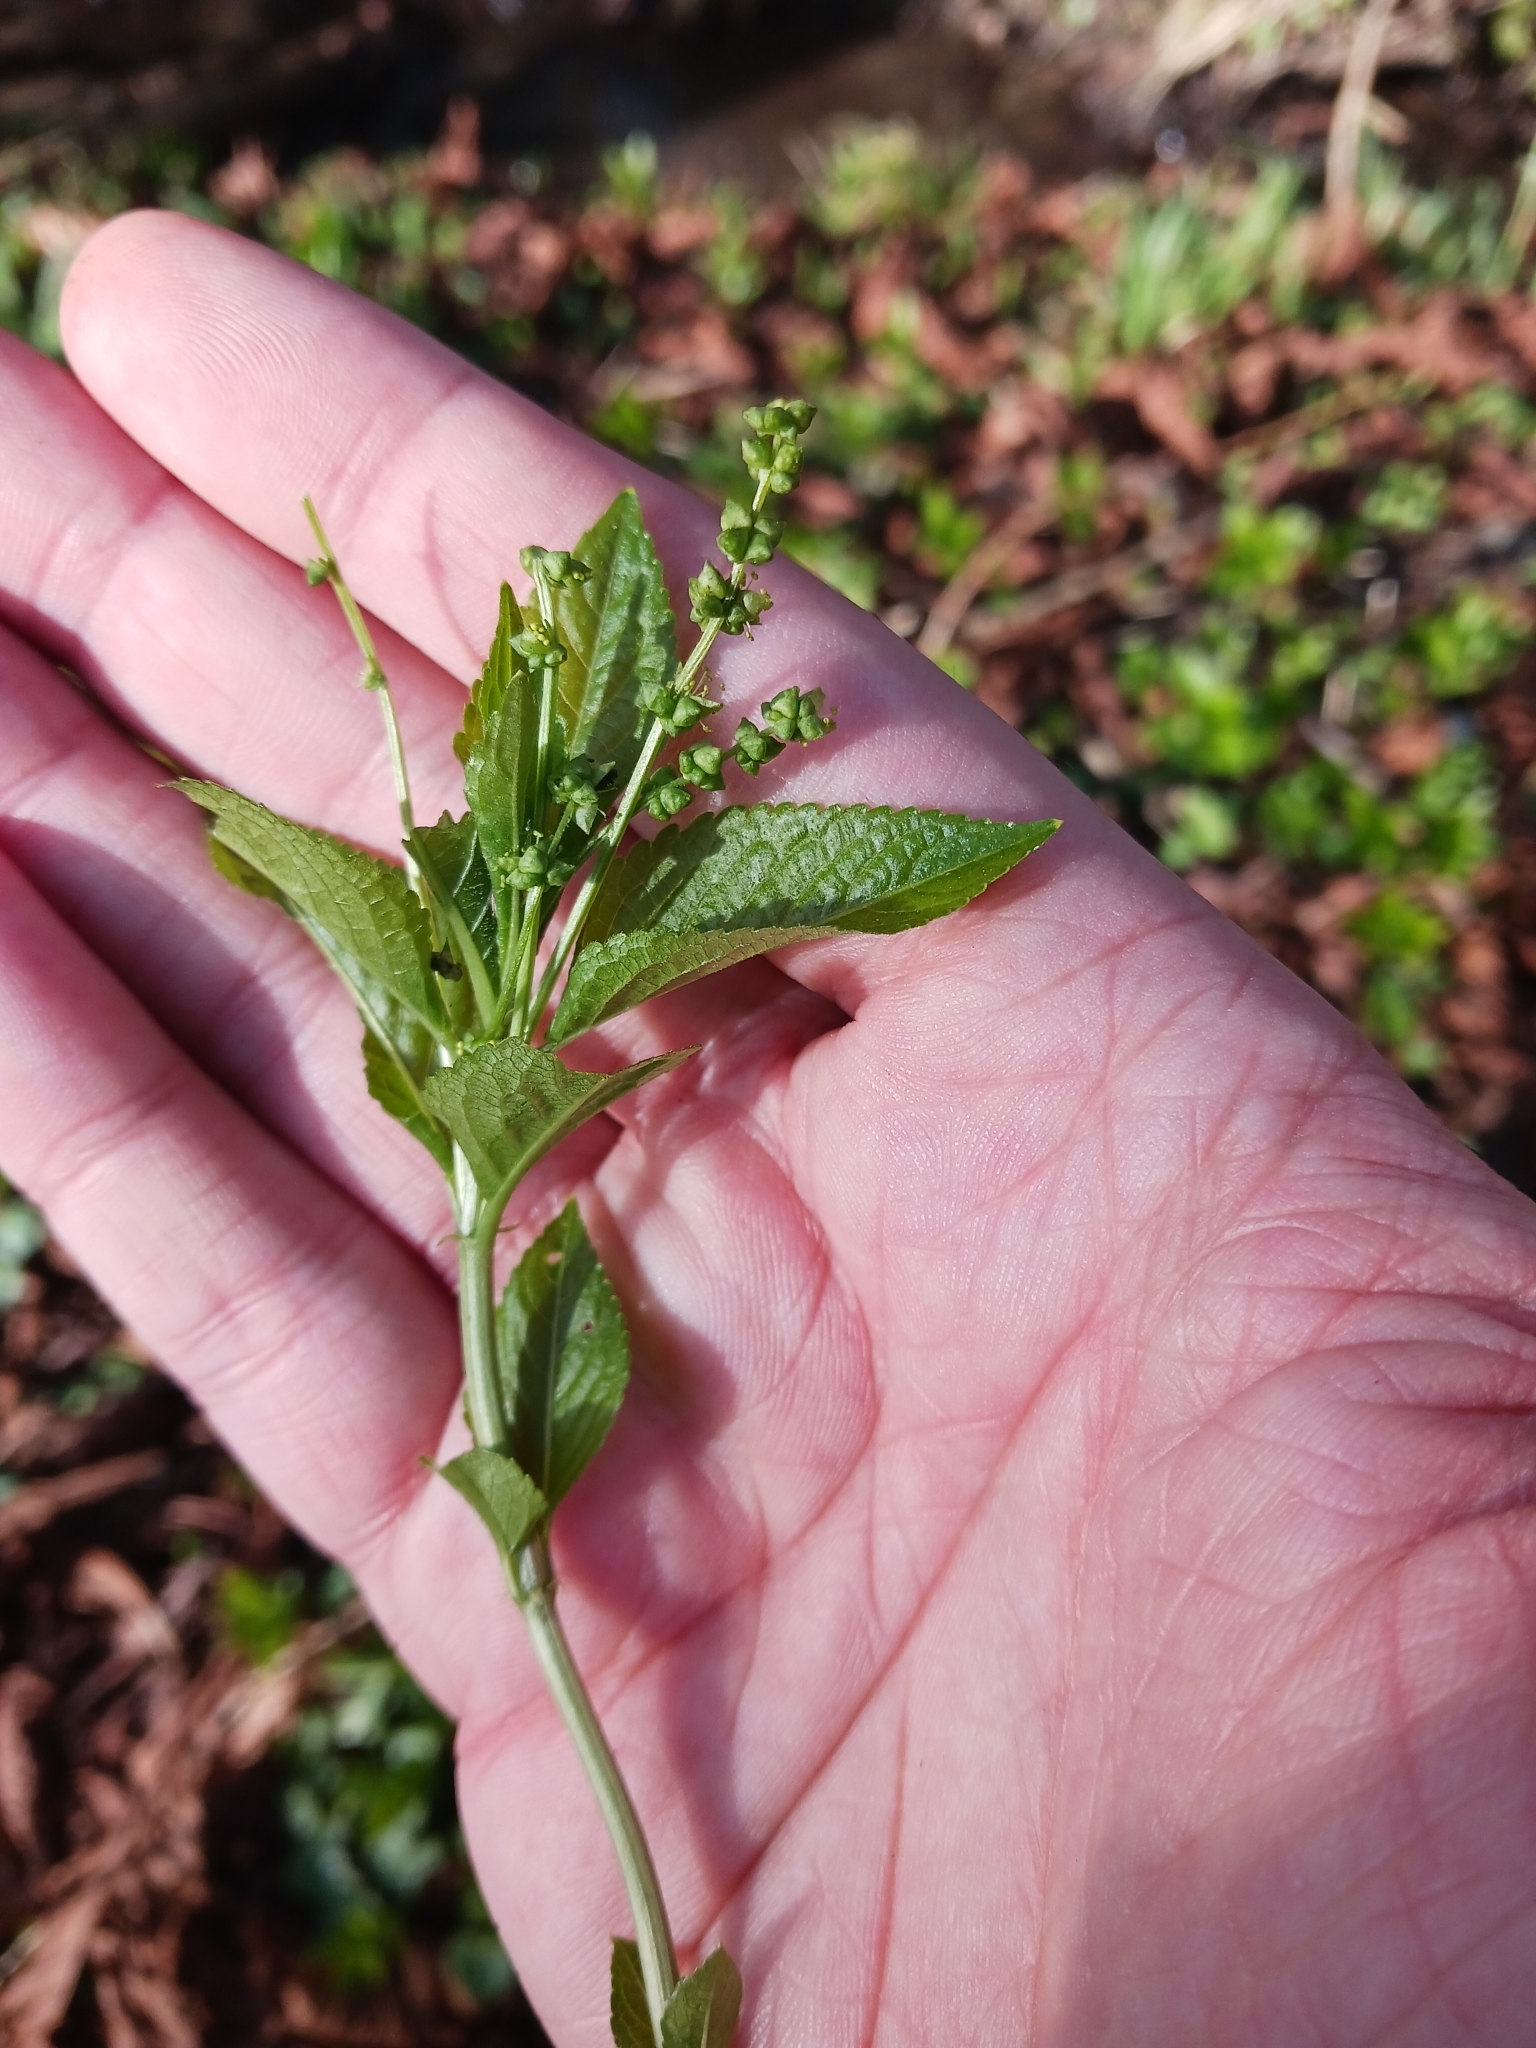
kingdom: Plantae
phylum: Tracheophyta
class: Magnoliopsida
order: Malpighiales
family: Euphorbiaceae
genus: Mercurialis
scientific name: Mercurialis perennis
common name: Dog mercury
